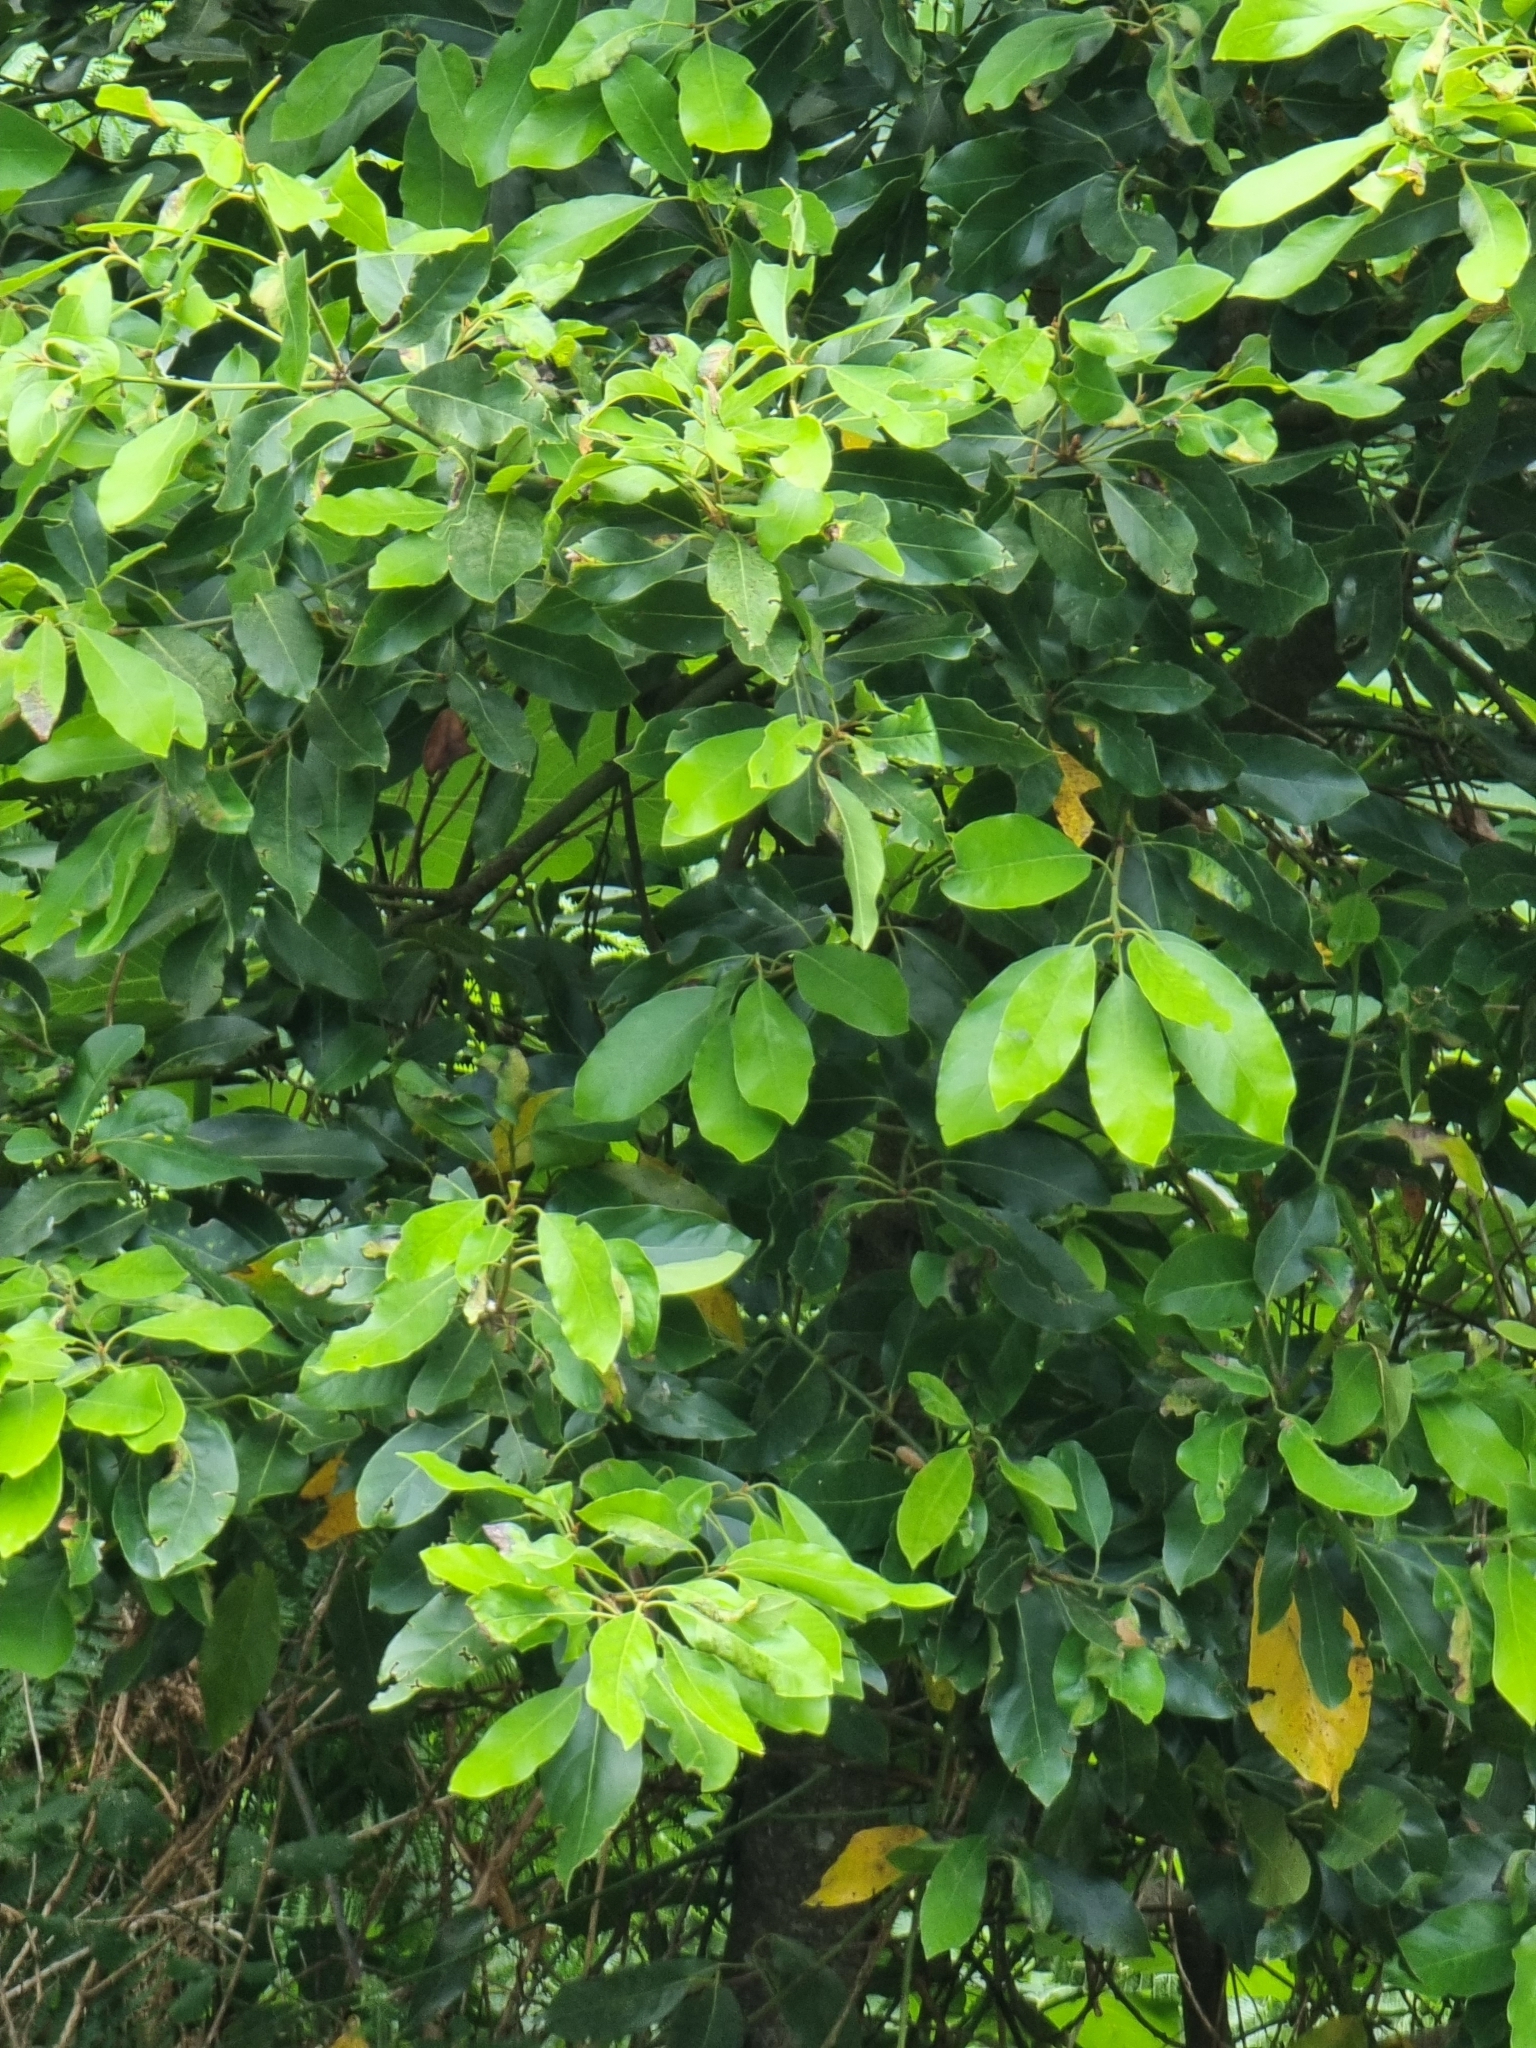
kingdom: Plantae
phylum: Tracheophyta
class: Magnoliopsida
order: Laurales
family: Lauraceae
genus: Laurus
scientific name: Laurus novocanariensis
